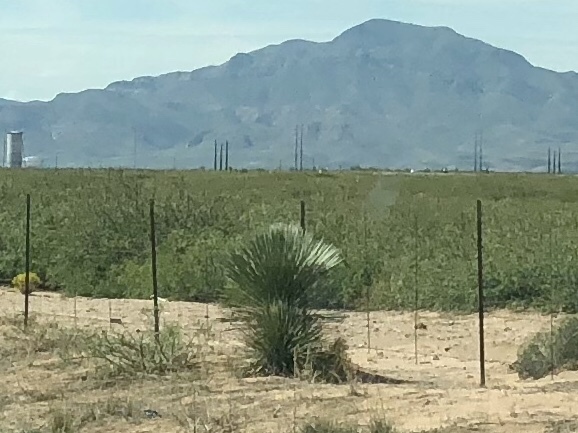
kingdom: Plantae
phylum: Tracheophyta
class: Liliopsida
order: Asparagales
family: Asparagaceae
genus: Yucca
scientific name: Yucca elata
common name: Palmella
